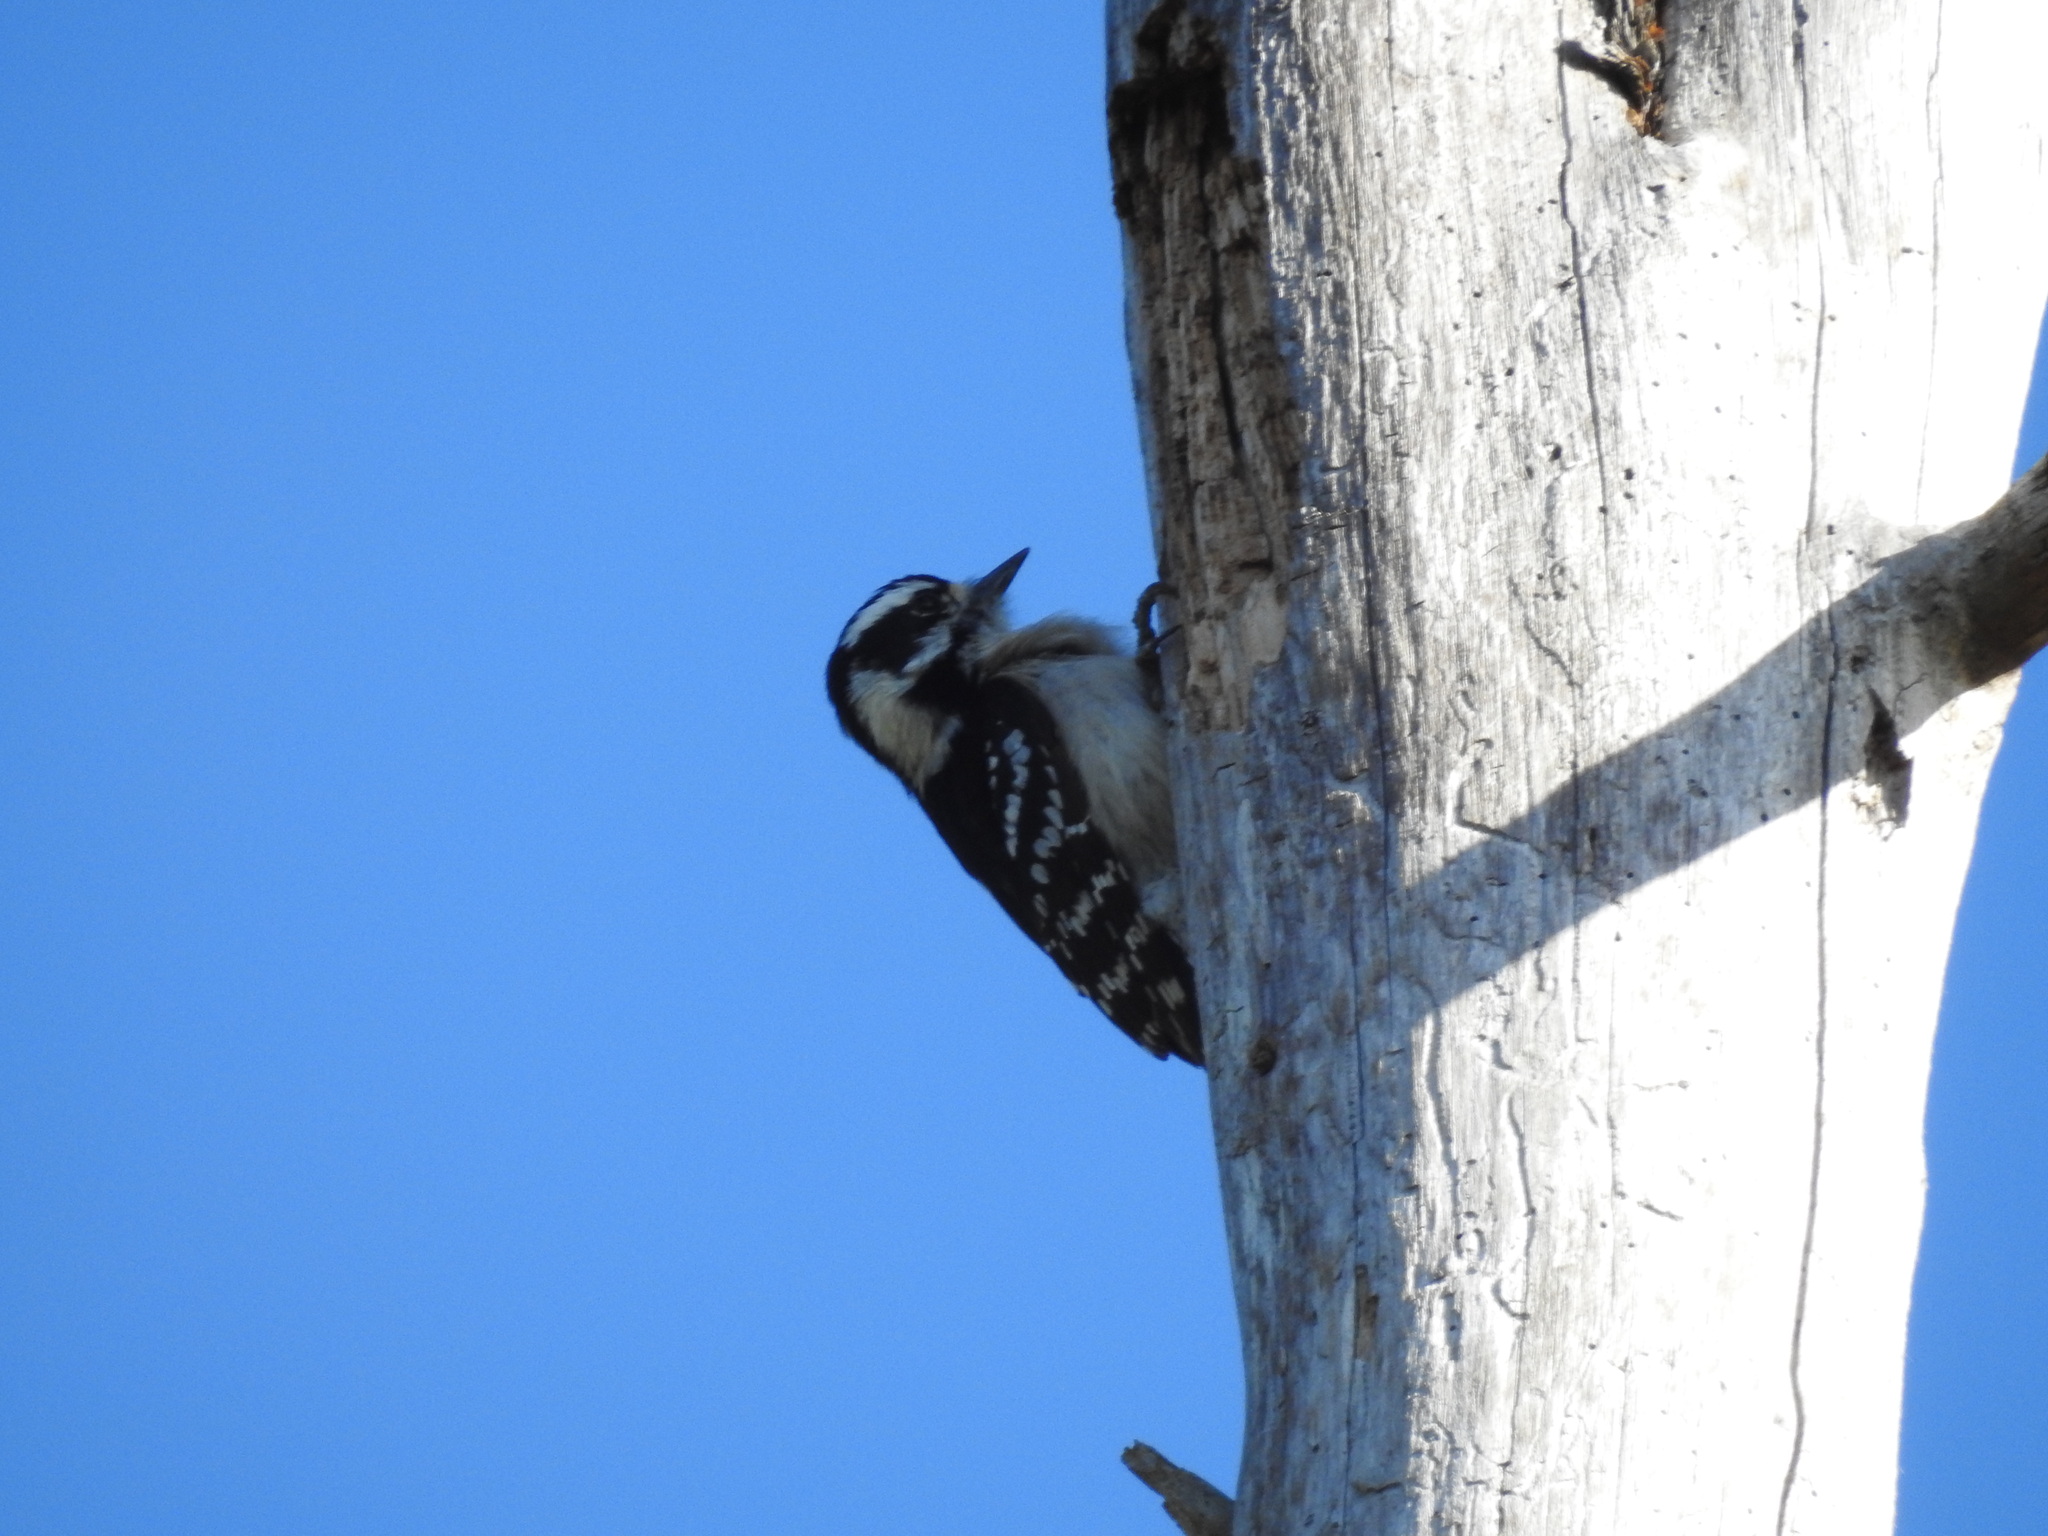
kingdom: Animalia
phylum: Chordata
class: Aves
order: Piciformes
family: Picidae
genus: Dryobates
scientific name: Dryobates pubescens
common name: Downy woodpecker
